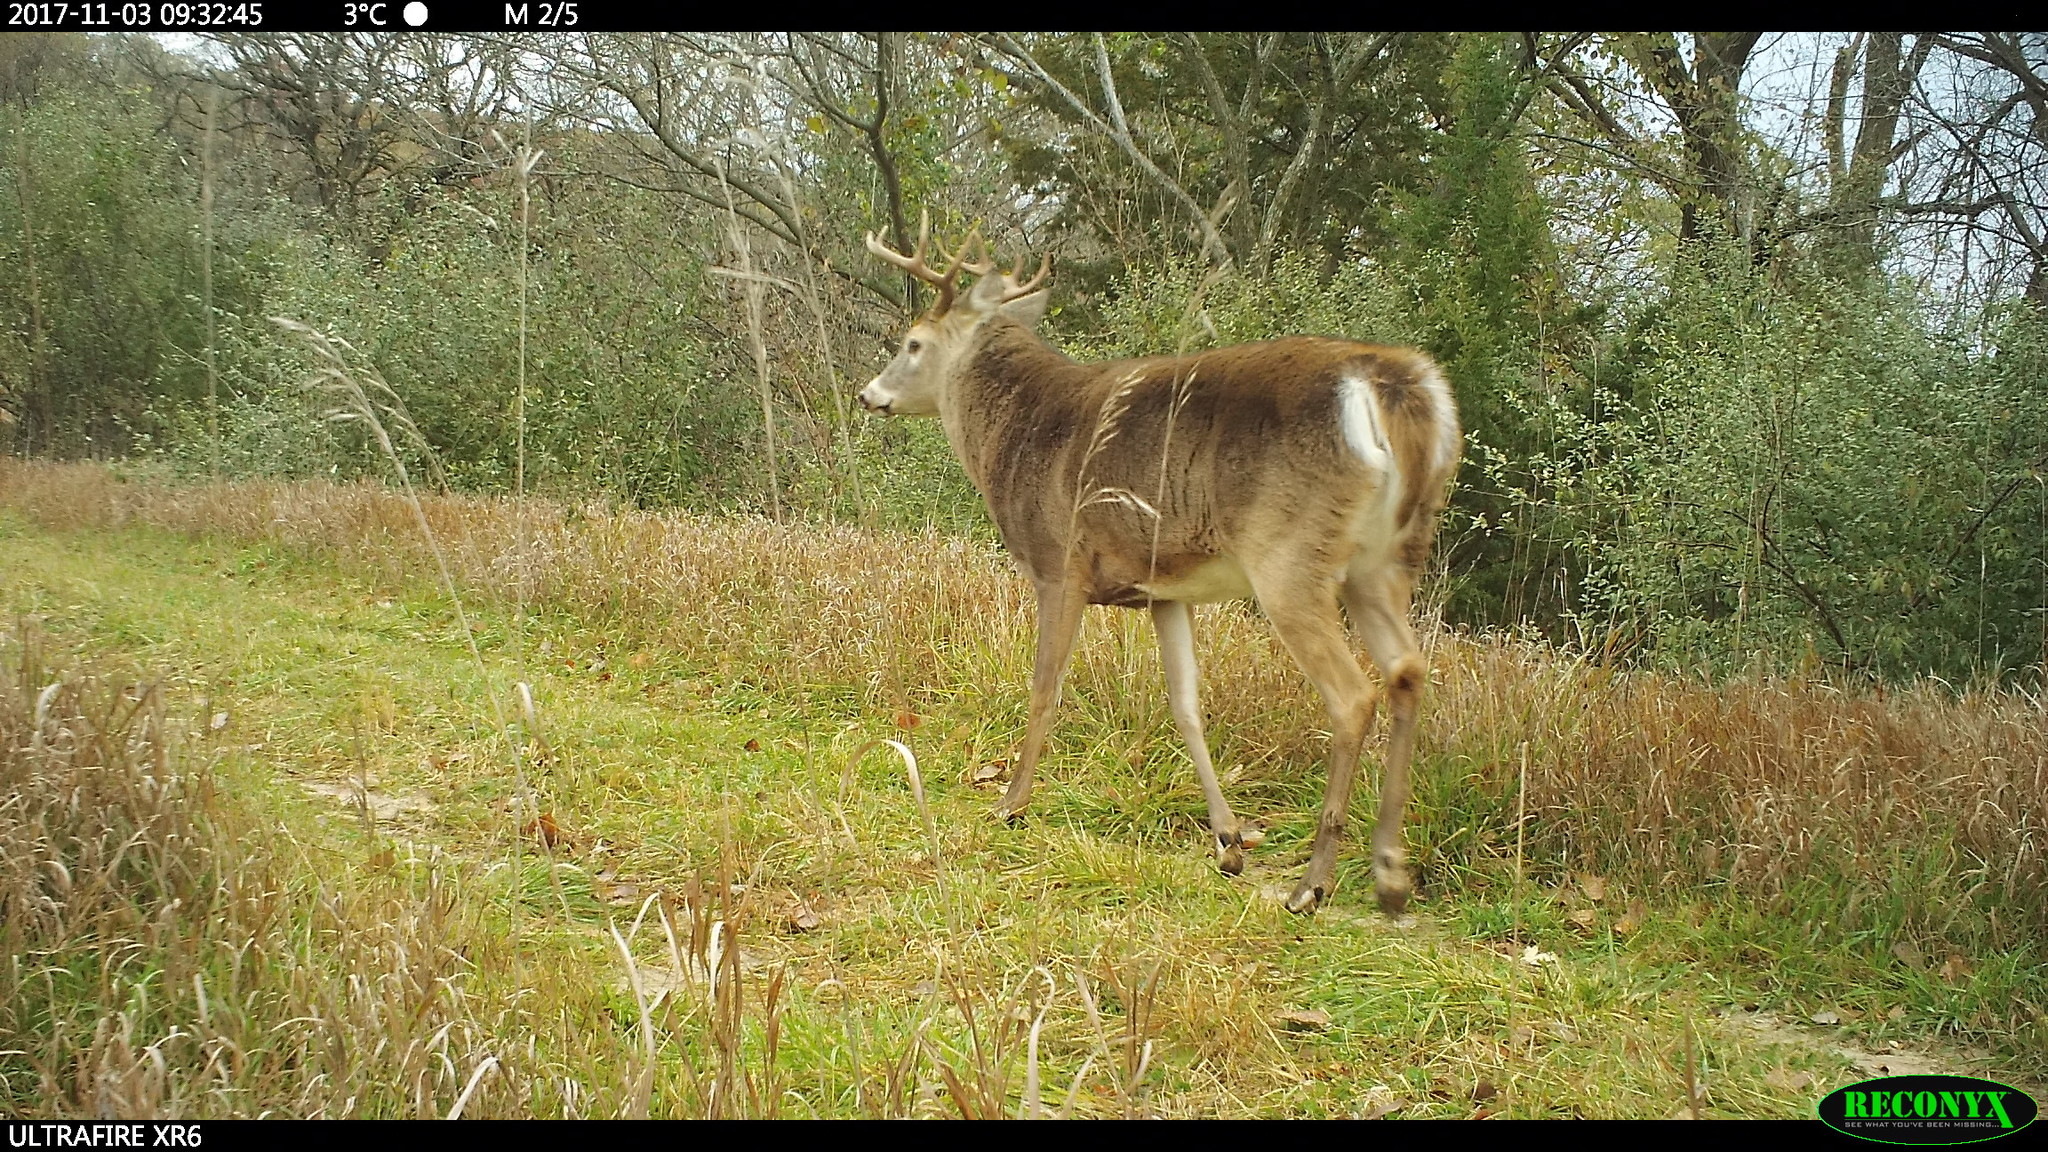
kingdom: Animalia
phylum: Chordata
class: Mammalia
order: Artiodactyla
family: Cervidae
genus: Odocoileus
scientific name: Odocoileus virginianus
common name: White-tailed deer
